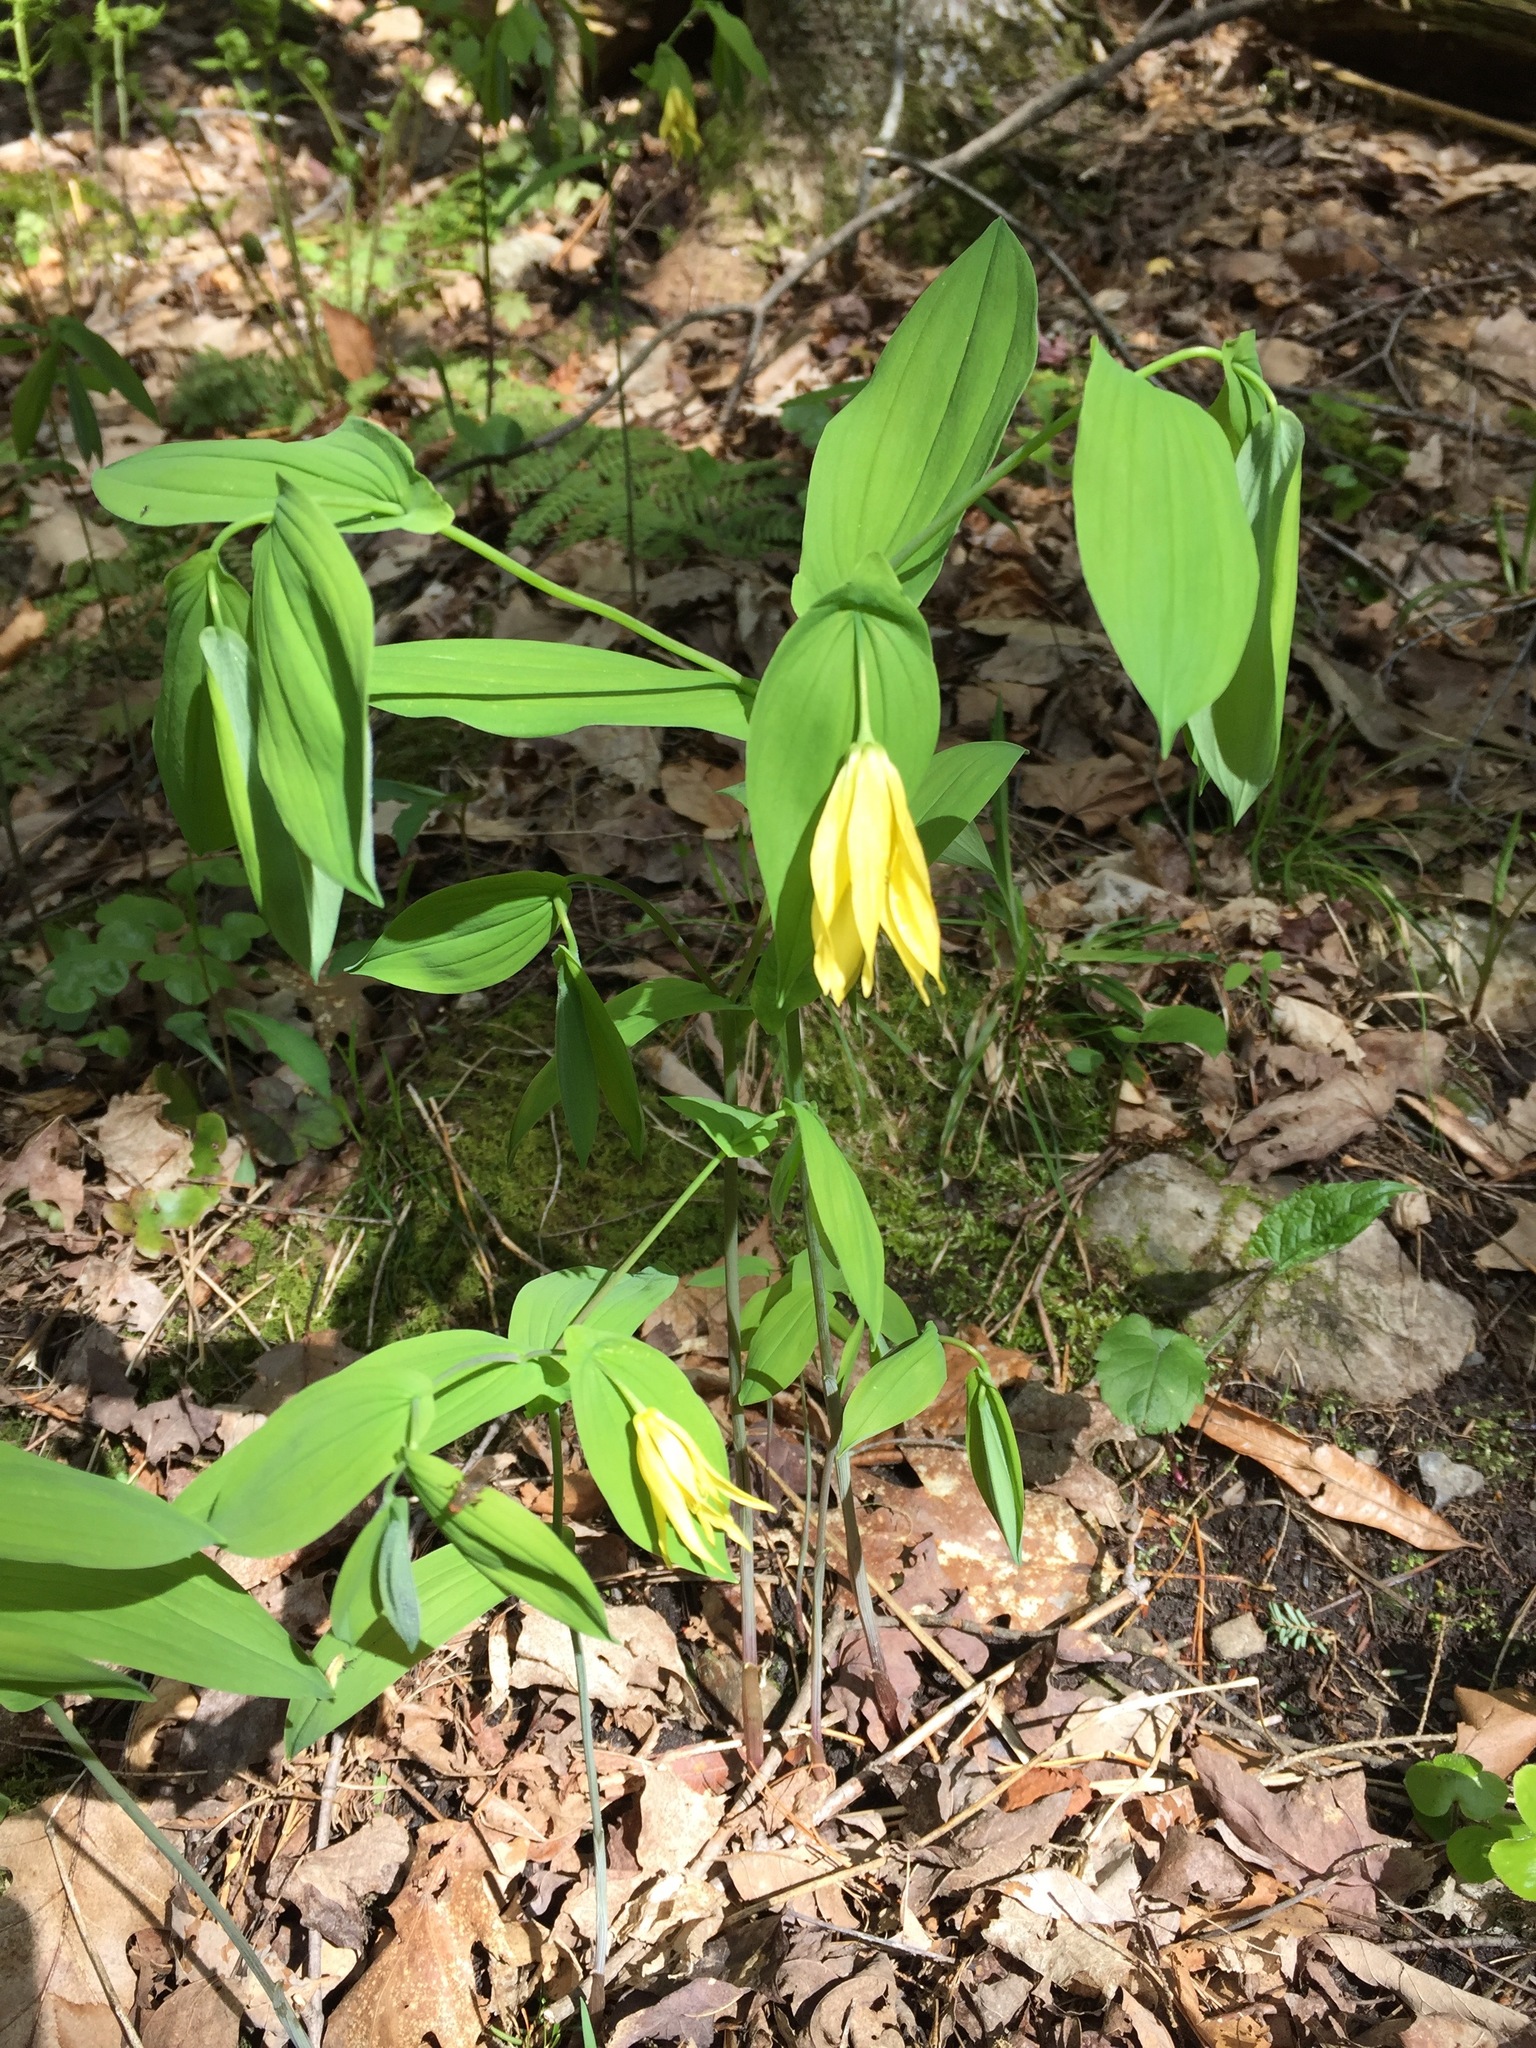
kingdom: Plantae
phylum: Tracheophyta
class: Liliopsida
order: Liliales
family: Colchicaceae
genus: Uvularia
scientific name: Uvularia grandiflora
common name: Bellwort
